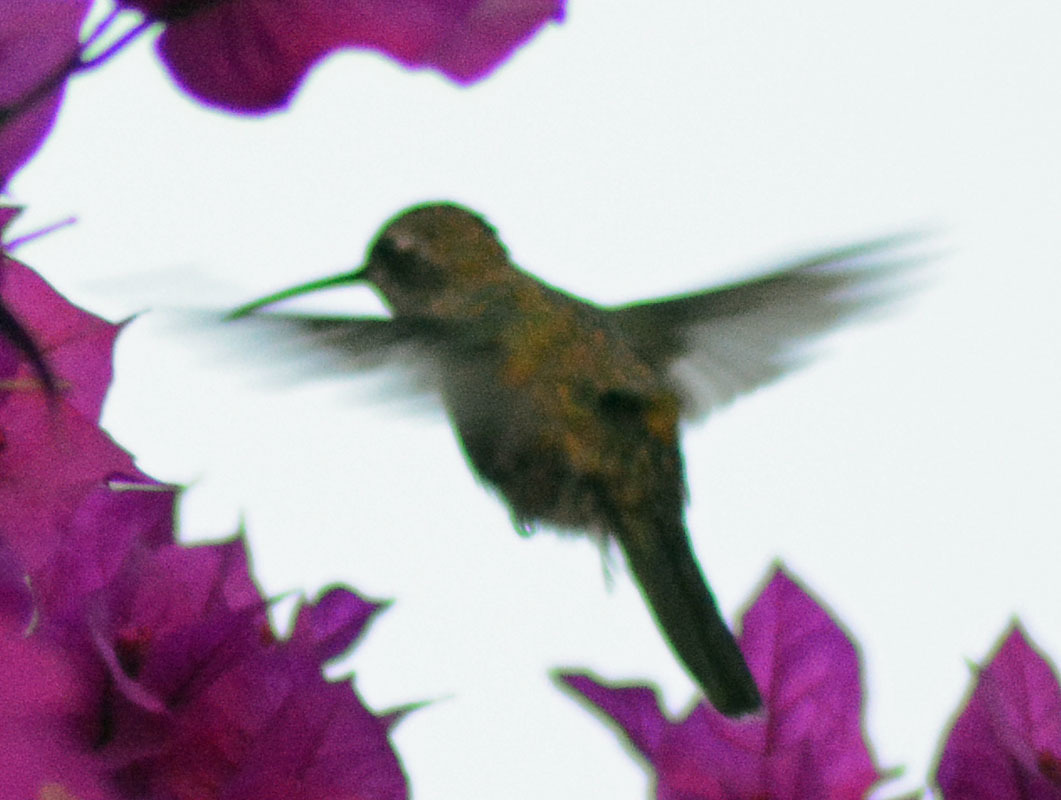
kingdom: Animalia
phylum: Chordata
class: Aves
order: Apodiformes
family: Trochilidae
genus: Cynanthus
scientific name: Cynanthus latirostris
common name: Broad-billed hummingbird
